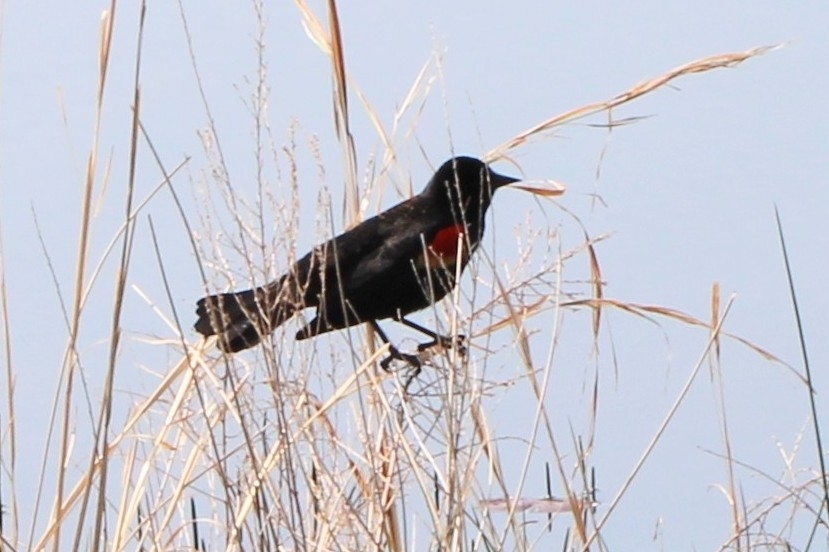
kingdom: Animalia
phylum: Chordata
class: Aves
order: Passeriformes
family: Icteridae
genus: Agelaius
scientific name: Agelaius phoeniceus
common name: Red-winged blackbird
